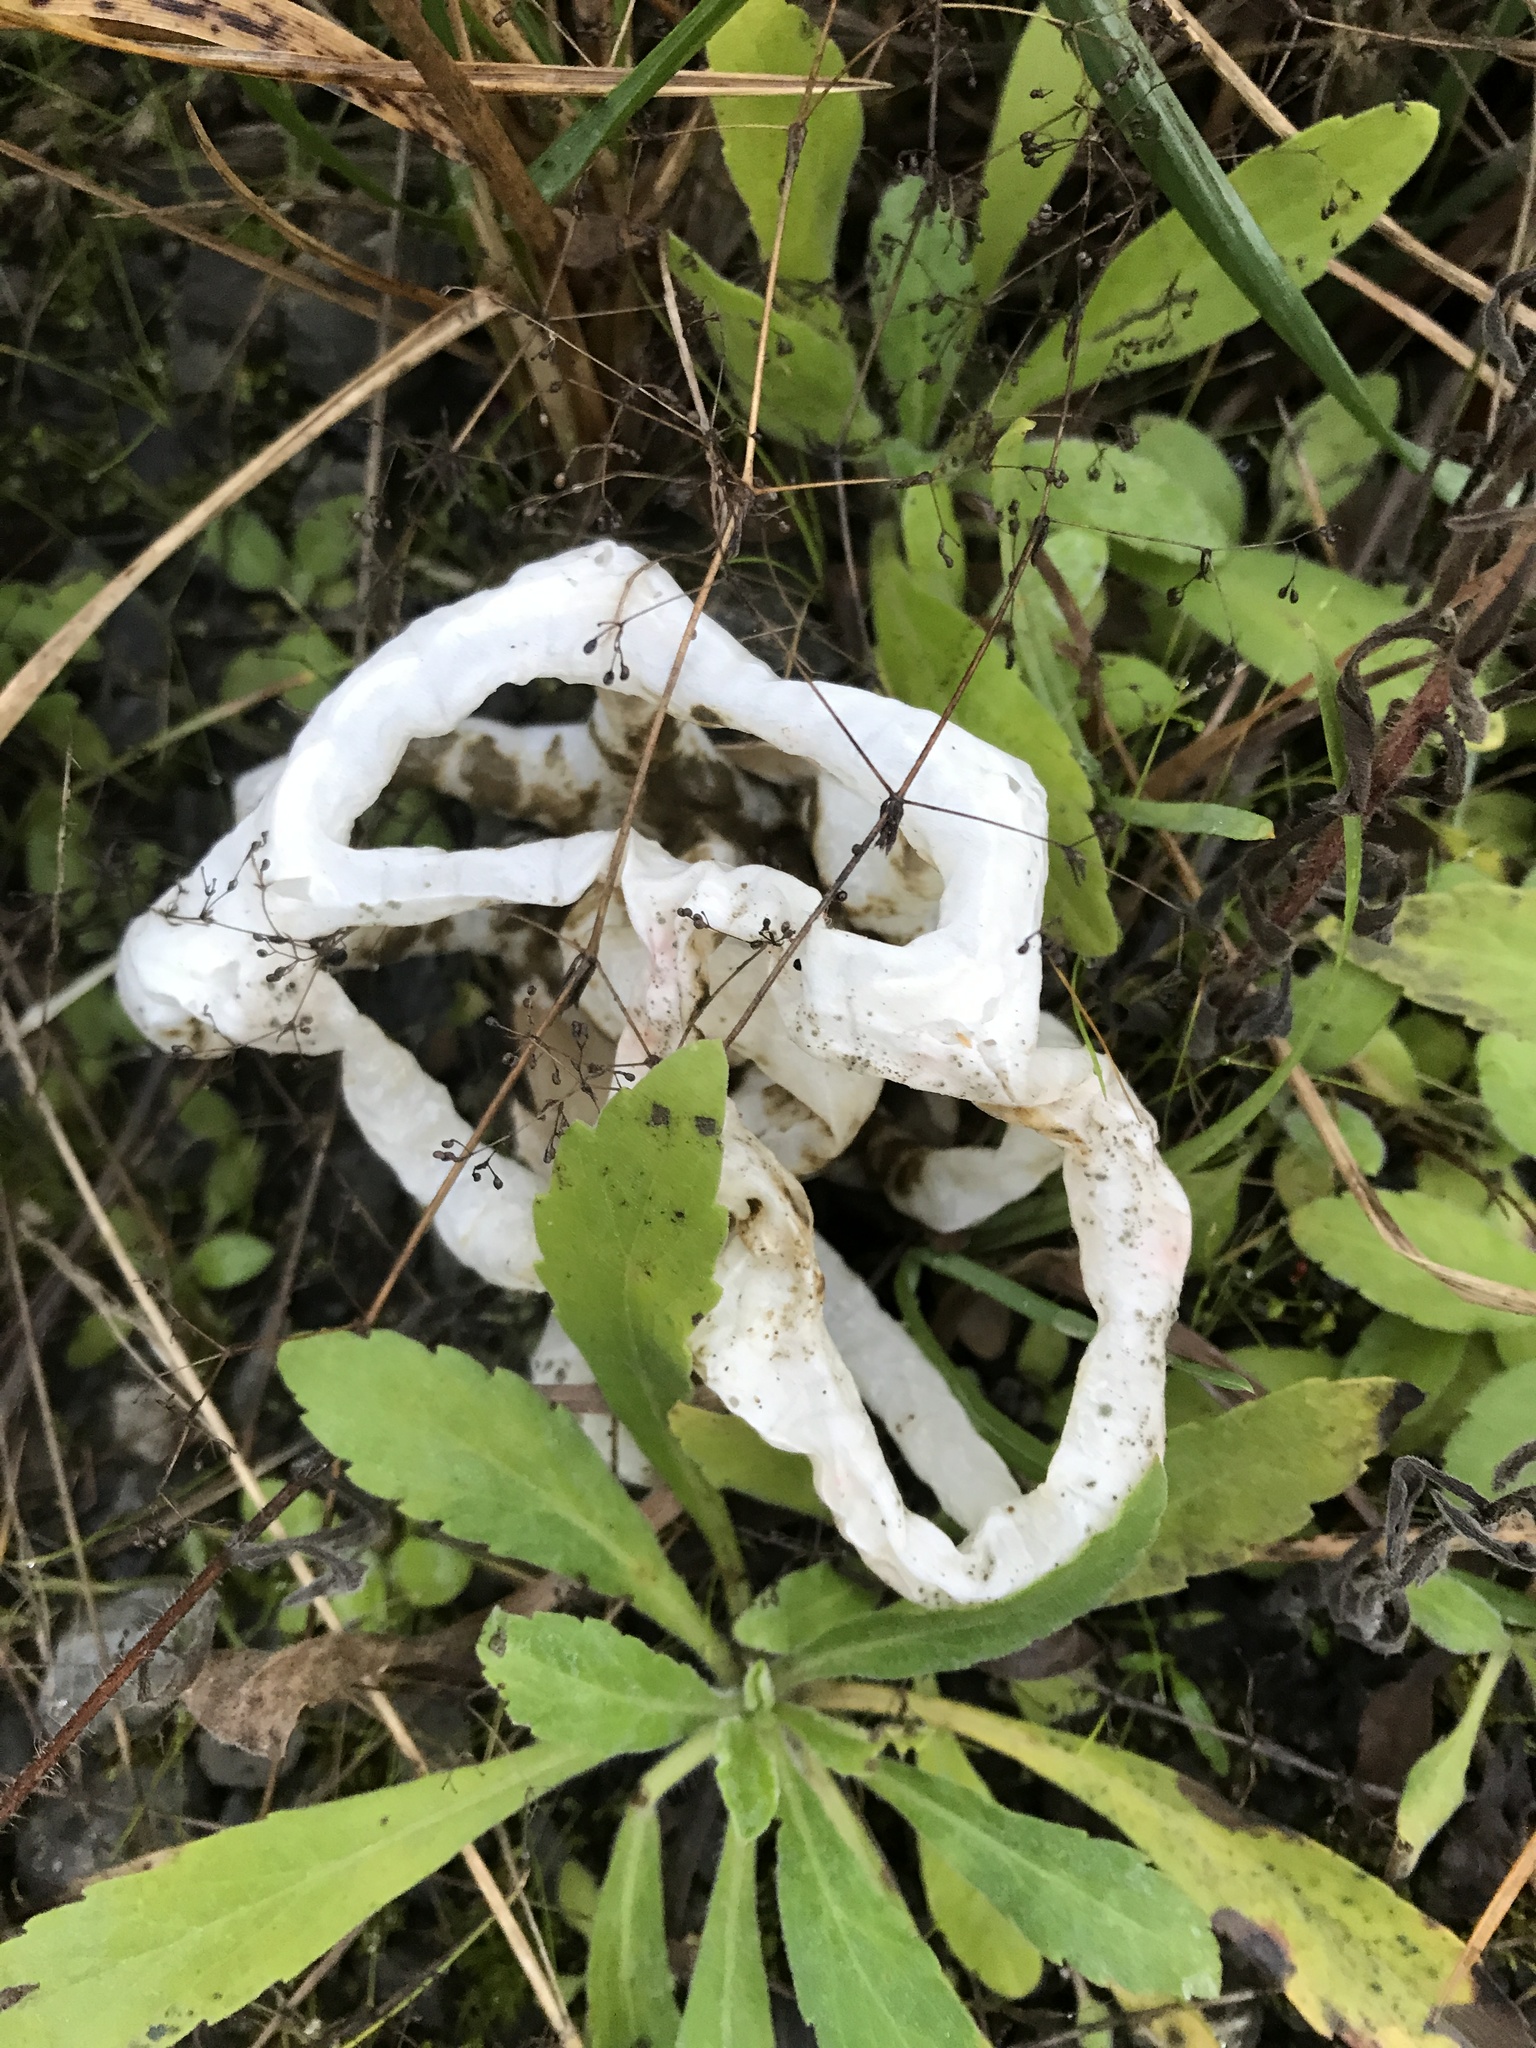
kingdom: Fungi
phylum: Basidiomycota
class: Agaricomycetes
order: Phallales
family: Phallaceae
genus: Ileodictyon
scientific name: Ileodictyon cibarium
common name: Basket fungus
